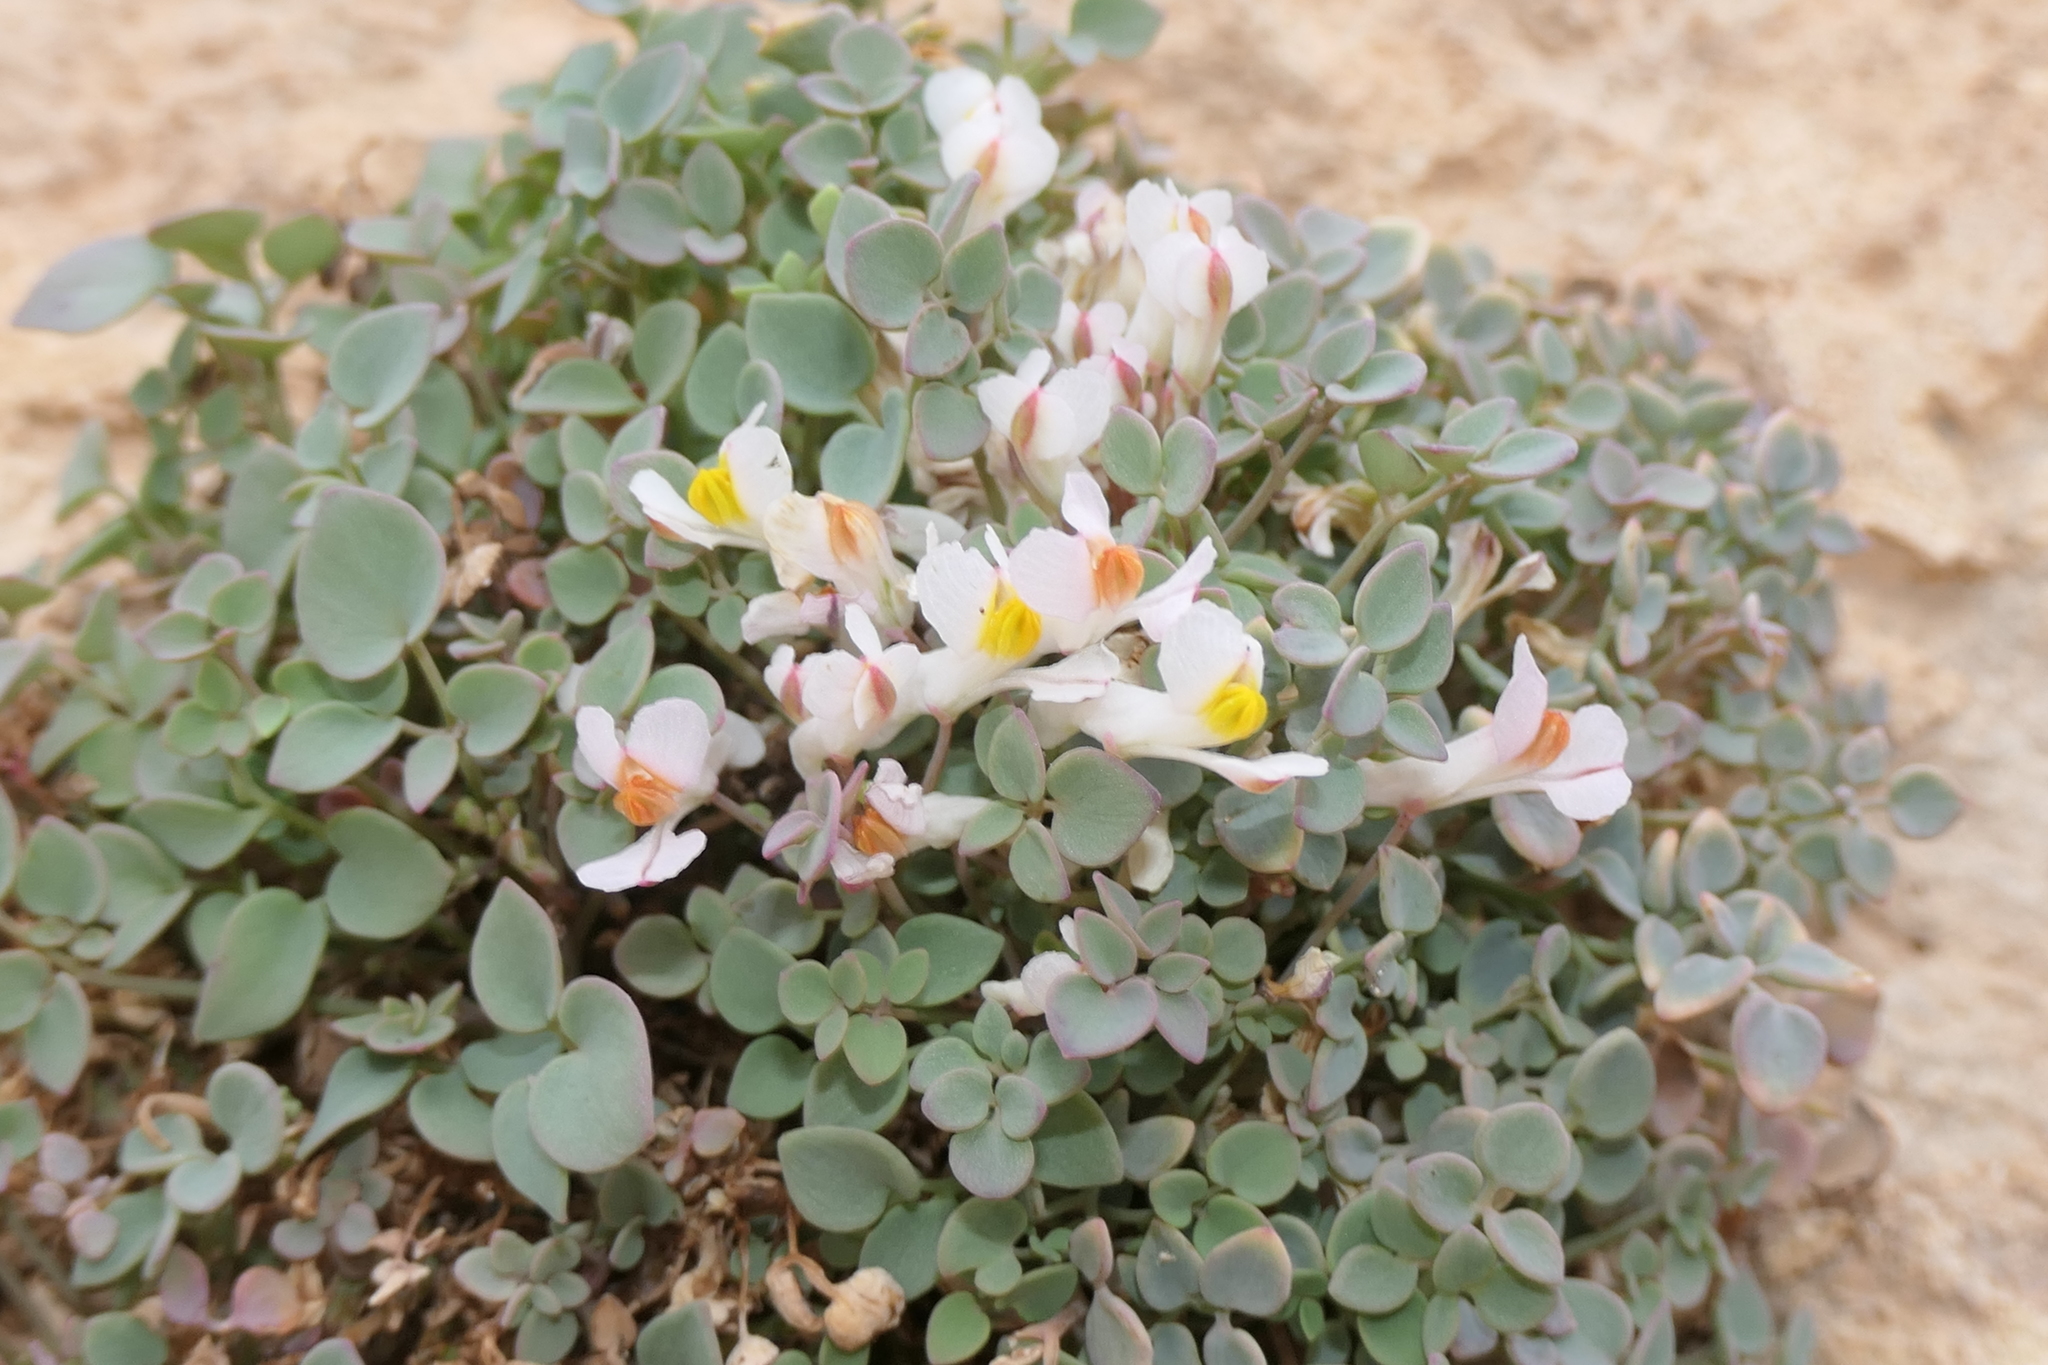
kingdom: Plantae
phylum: Tracheophyta
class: Magnoliopsida
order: Ranunculales
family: Papaveraceae
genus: Sarcocapnos
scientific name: Sarcocapnos enneaphylla
